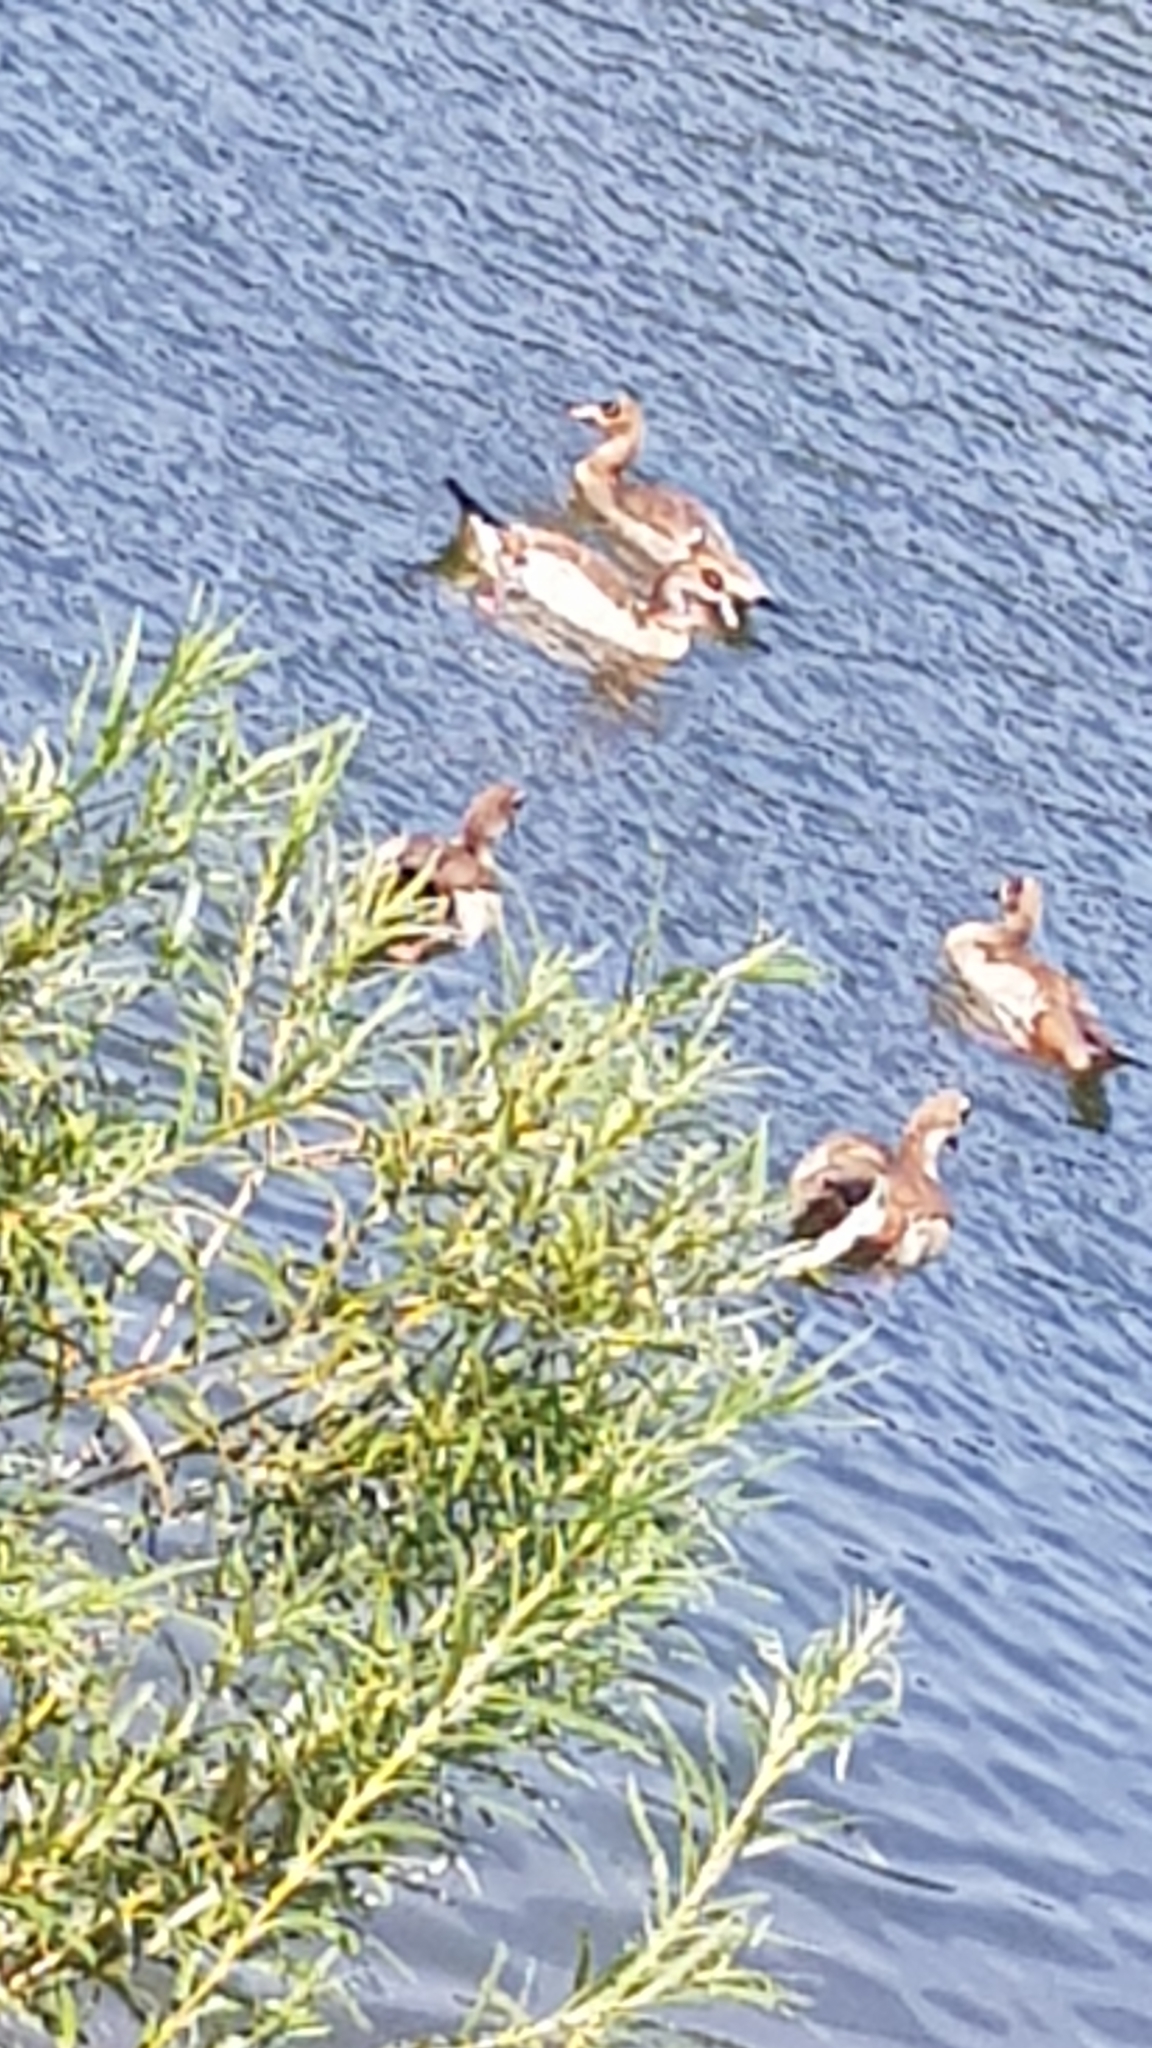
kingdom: Animalia
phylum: Chordata
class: Aves
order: Anseriformes
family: Anatidae
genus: Alopochen
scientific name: Alopochen aegyptiaca
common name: Egyptian goose
